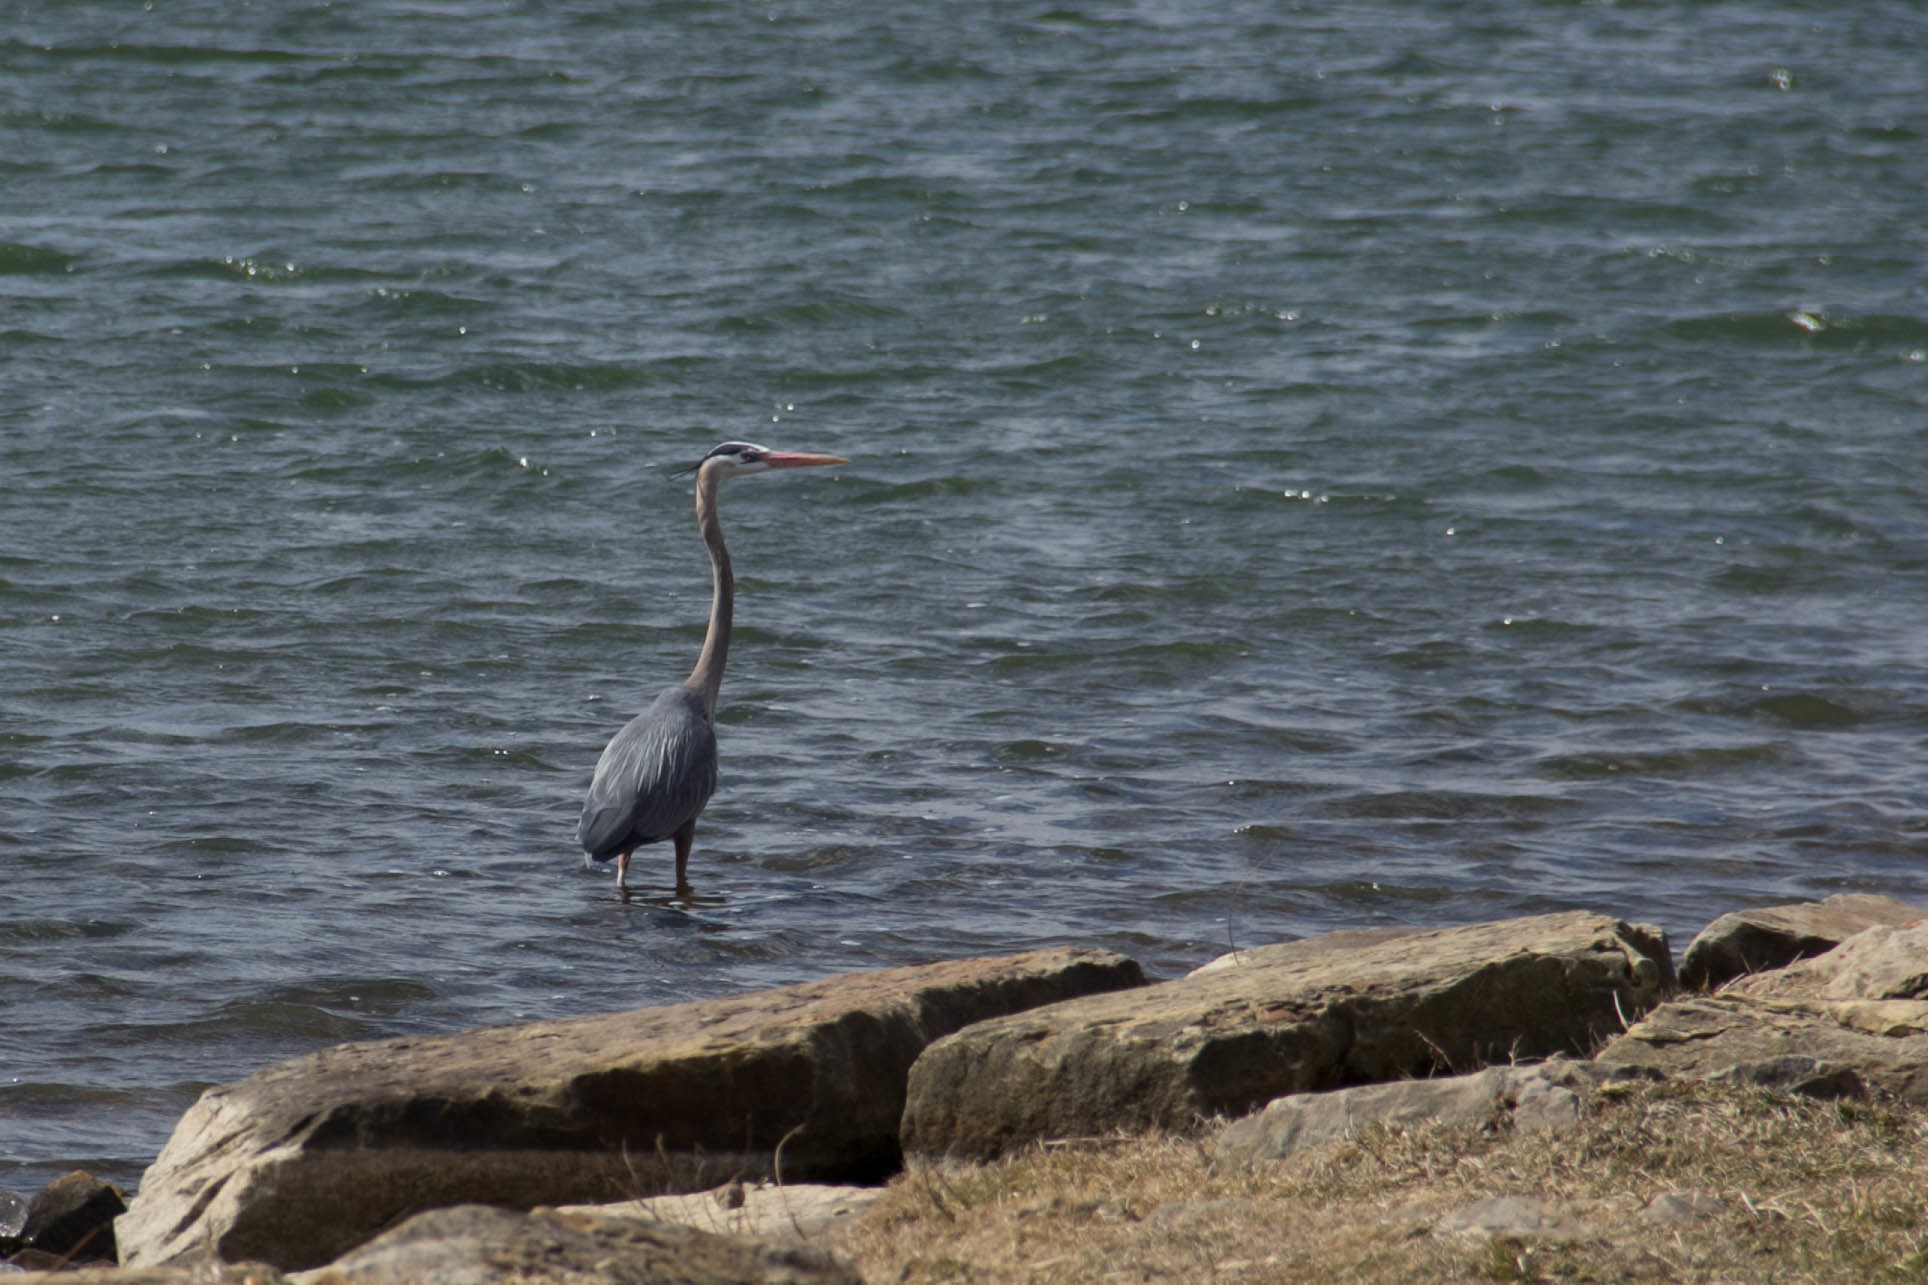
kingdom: Animalia
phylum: Chordata
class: Aves
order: Pelecaniformes
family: Ardeidae
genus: Ardea
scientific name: Ardea herodias
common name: Great blue heron
